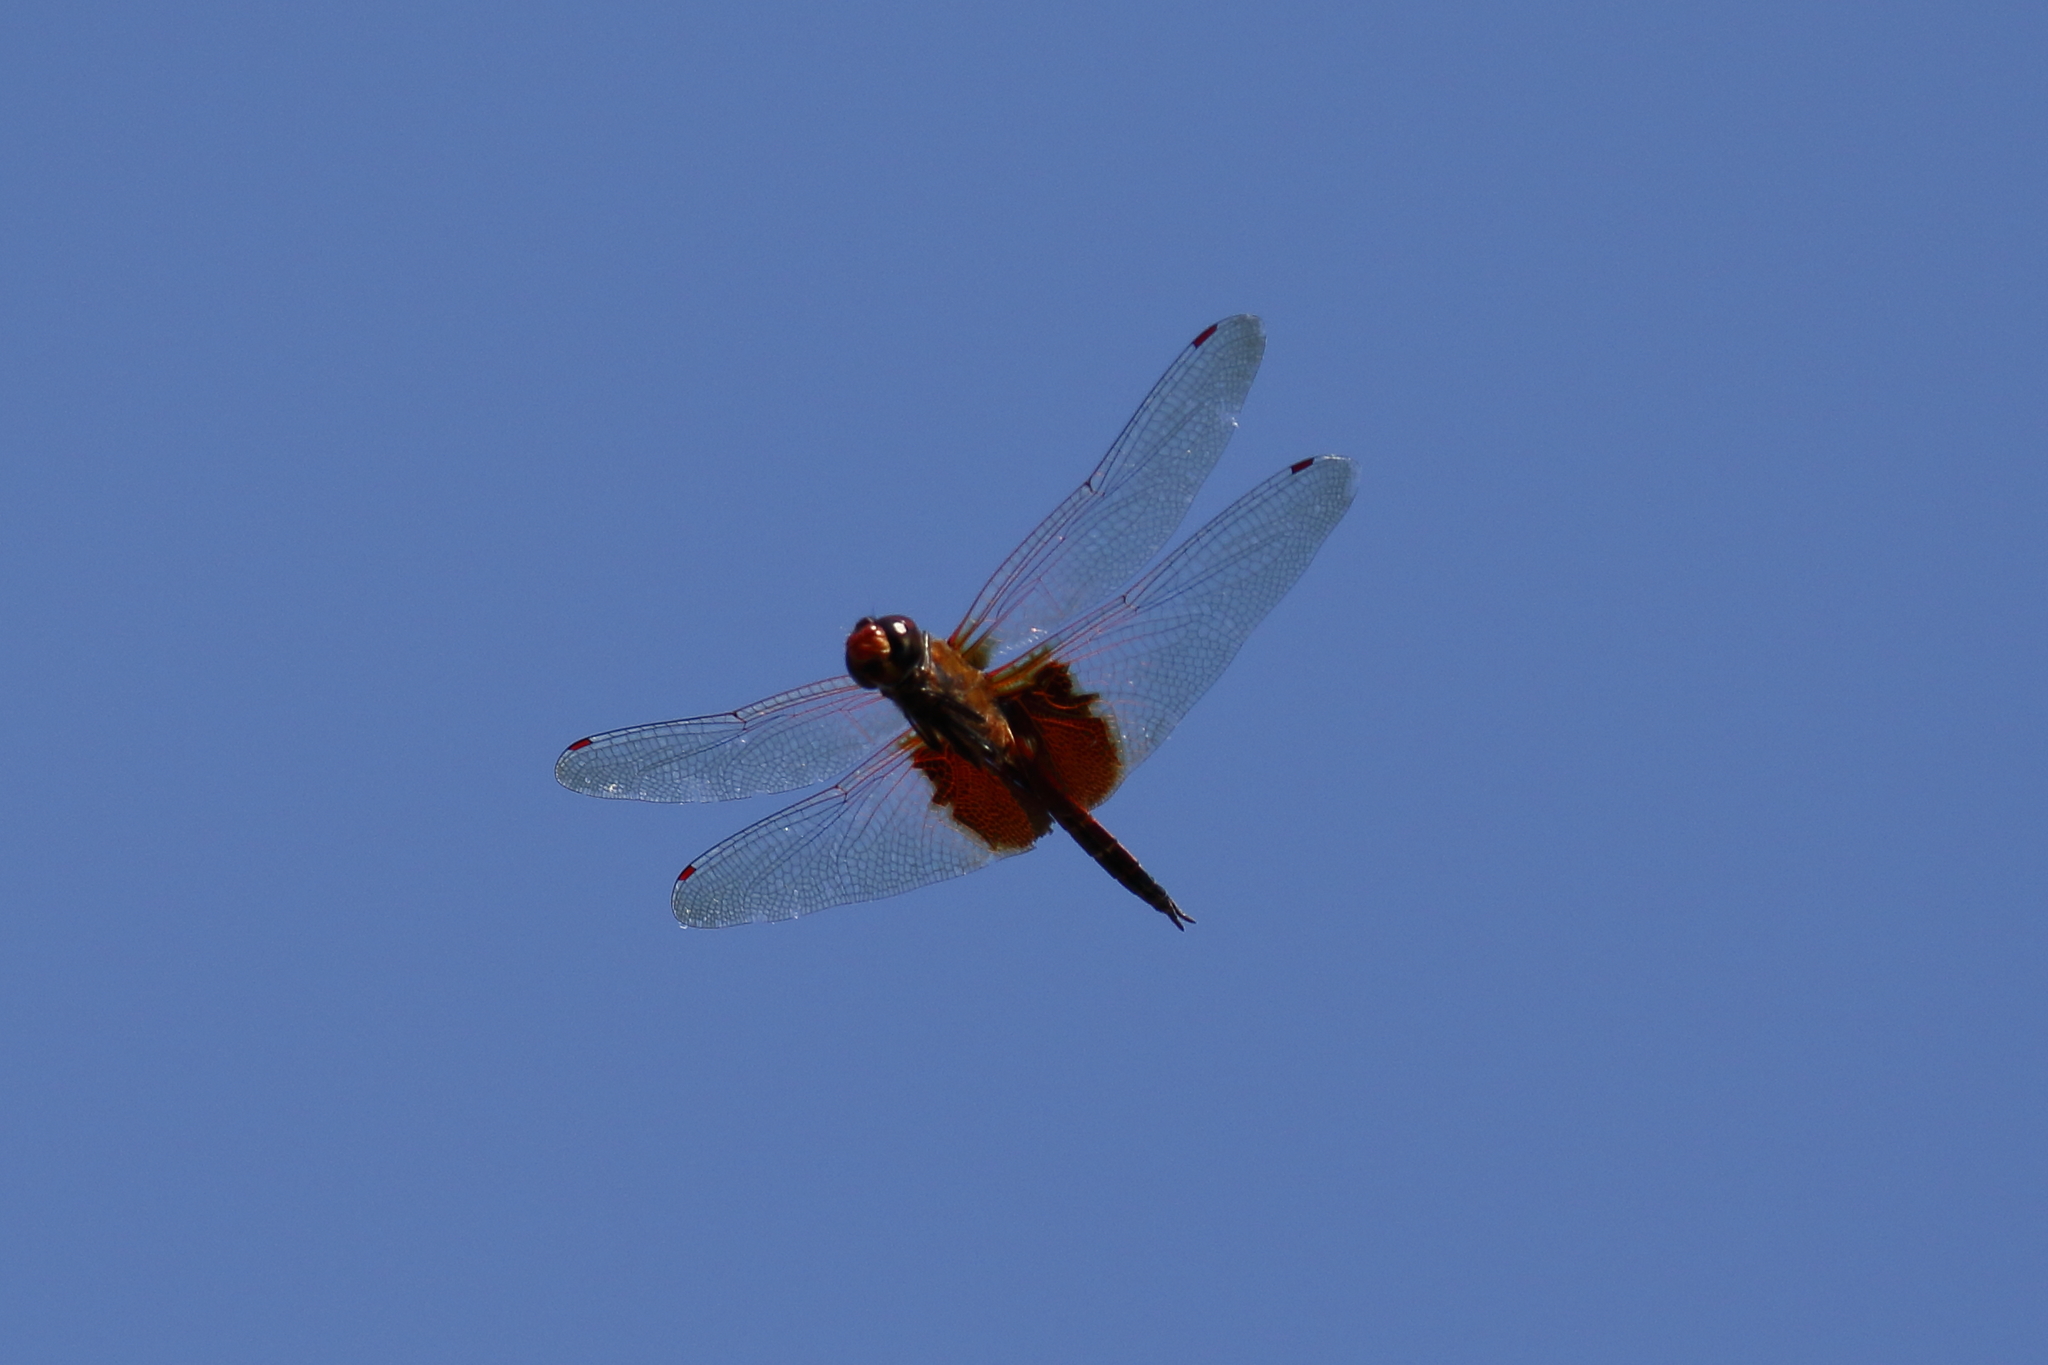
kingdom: Animalia
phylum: Arthropoda
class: Insecta
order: Odonata
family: Libellulidae
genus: Tramea
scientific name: Tramea virginia
